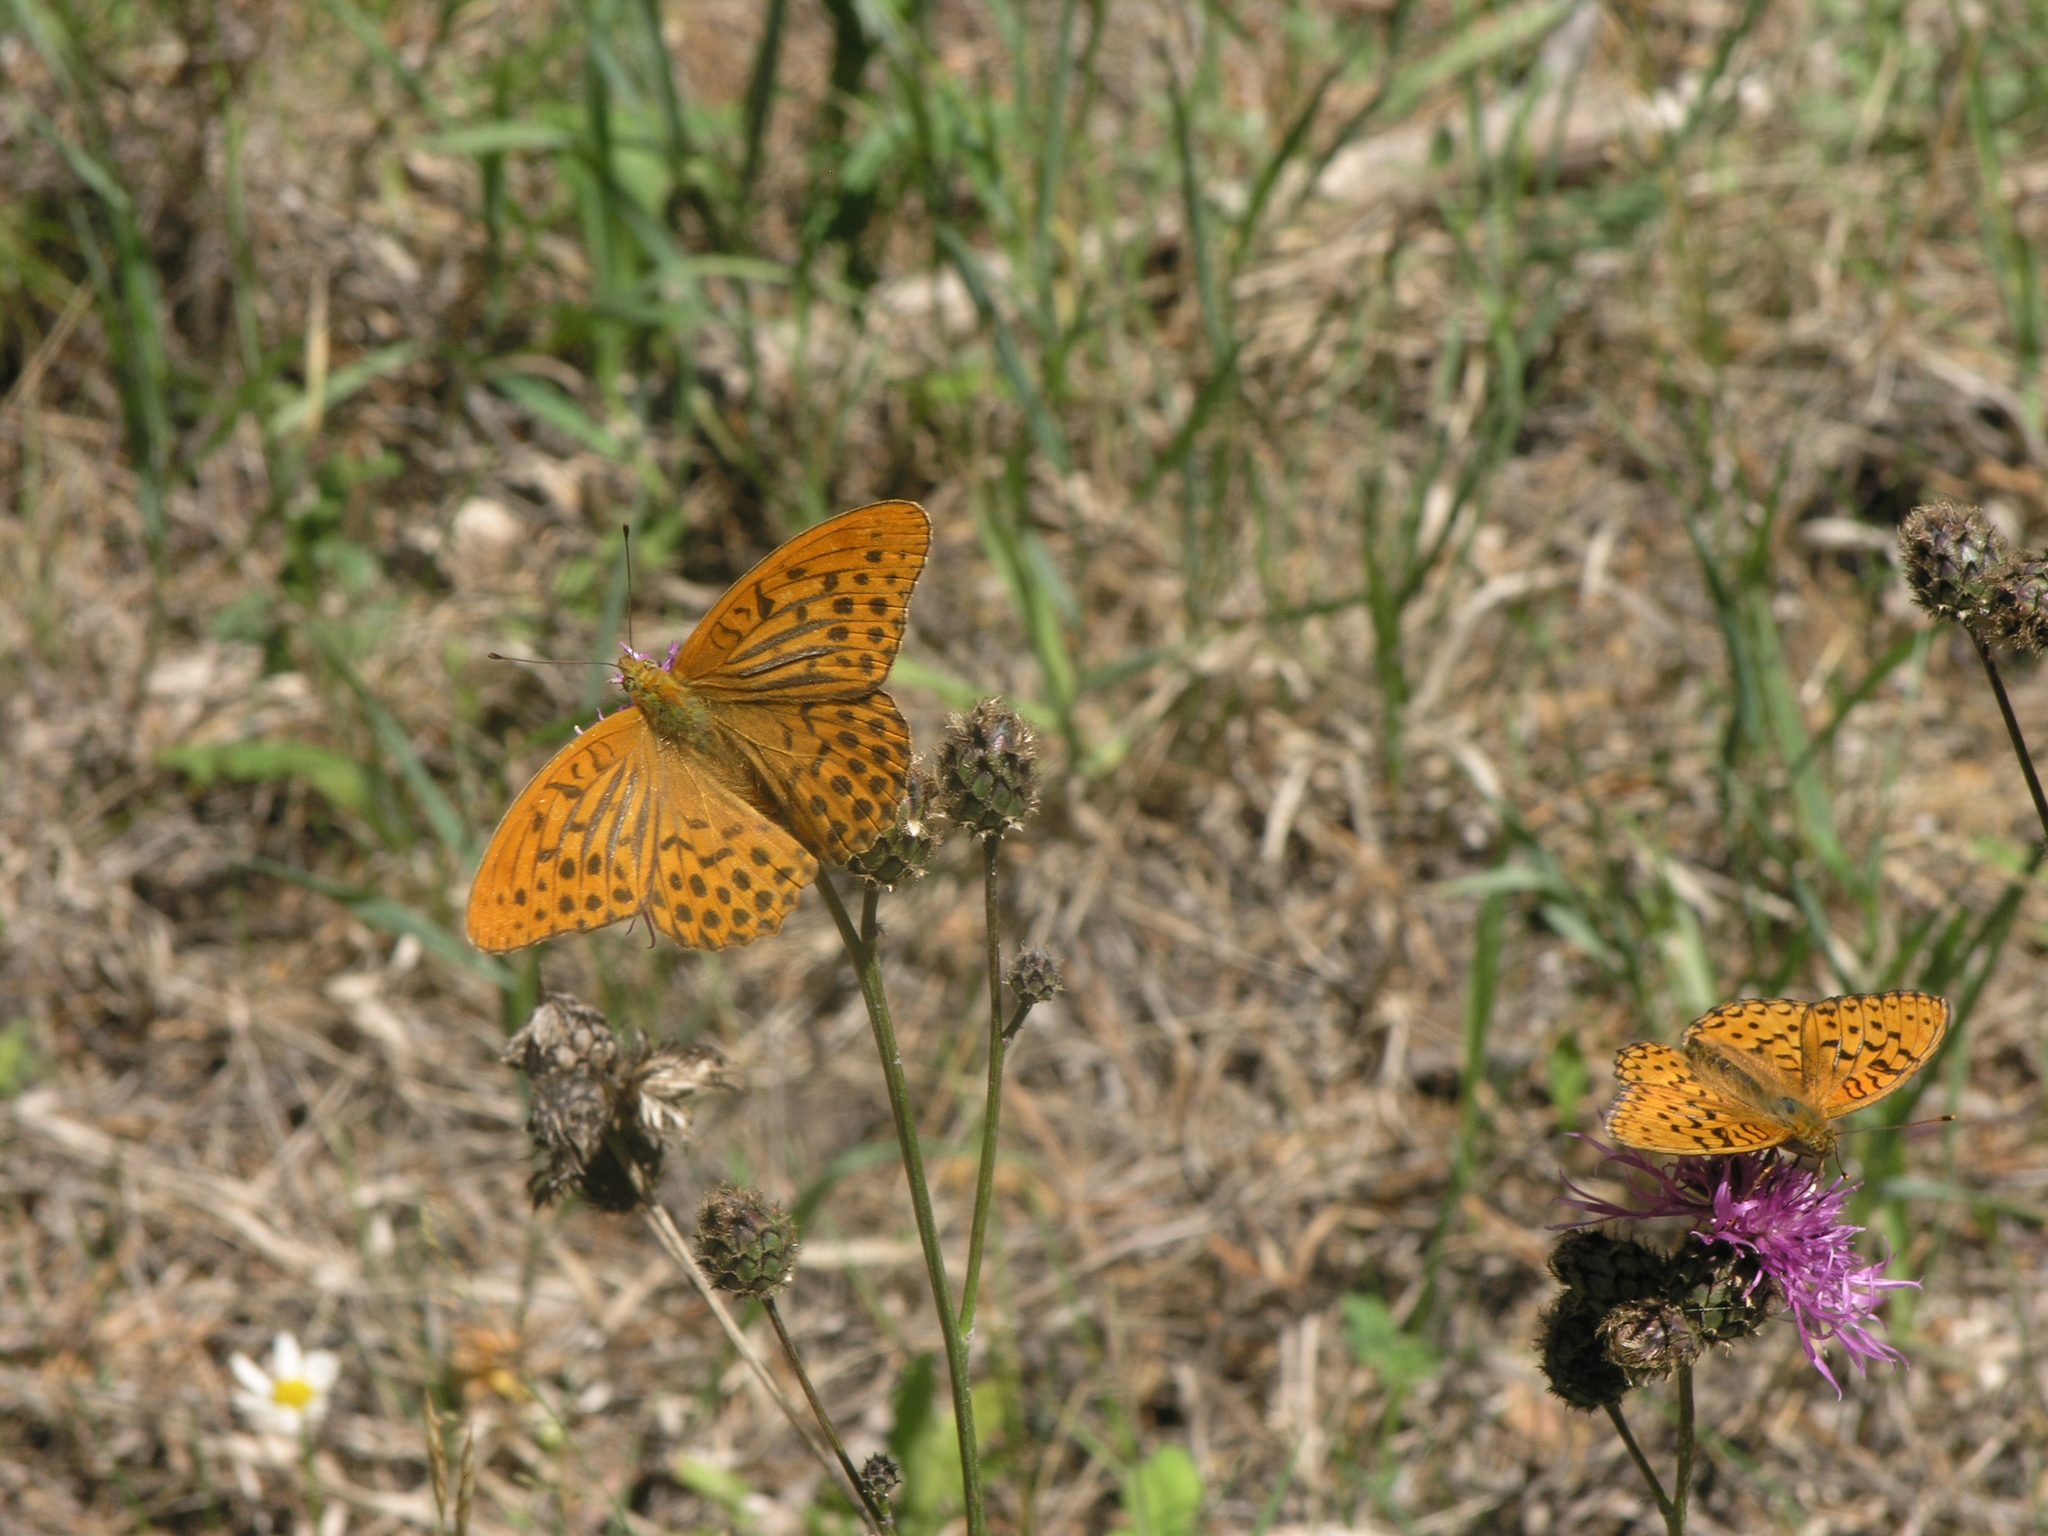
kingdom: Animalia
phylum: Arthropoda
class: Insecta
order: Lepidoptera
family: Nymphalidae
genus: Argynnis
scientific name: Argynnis paphia
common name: Silver-washed fritillary
